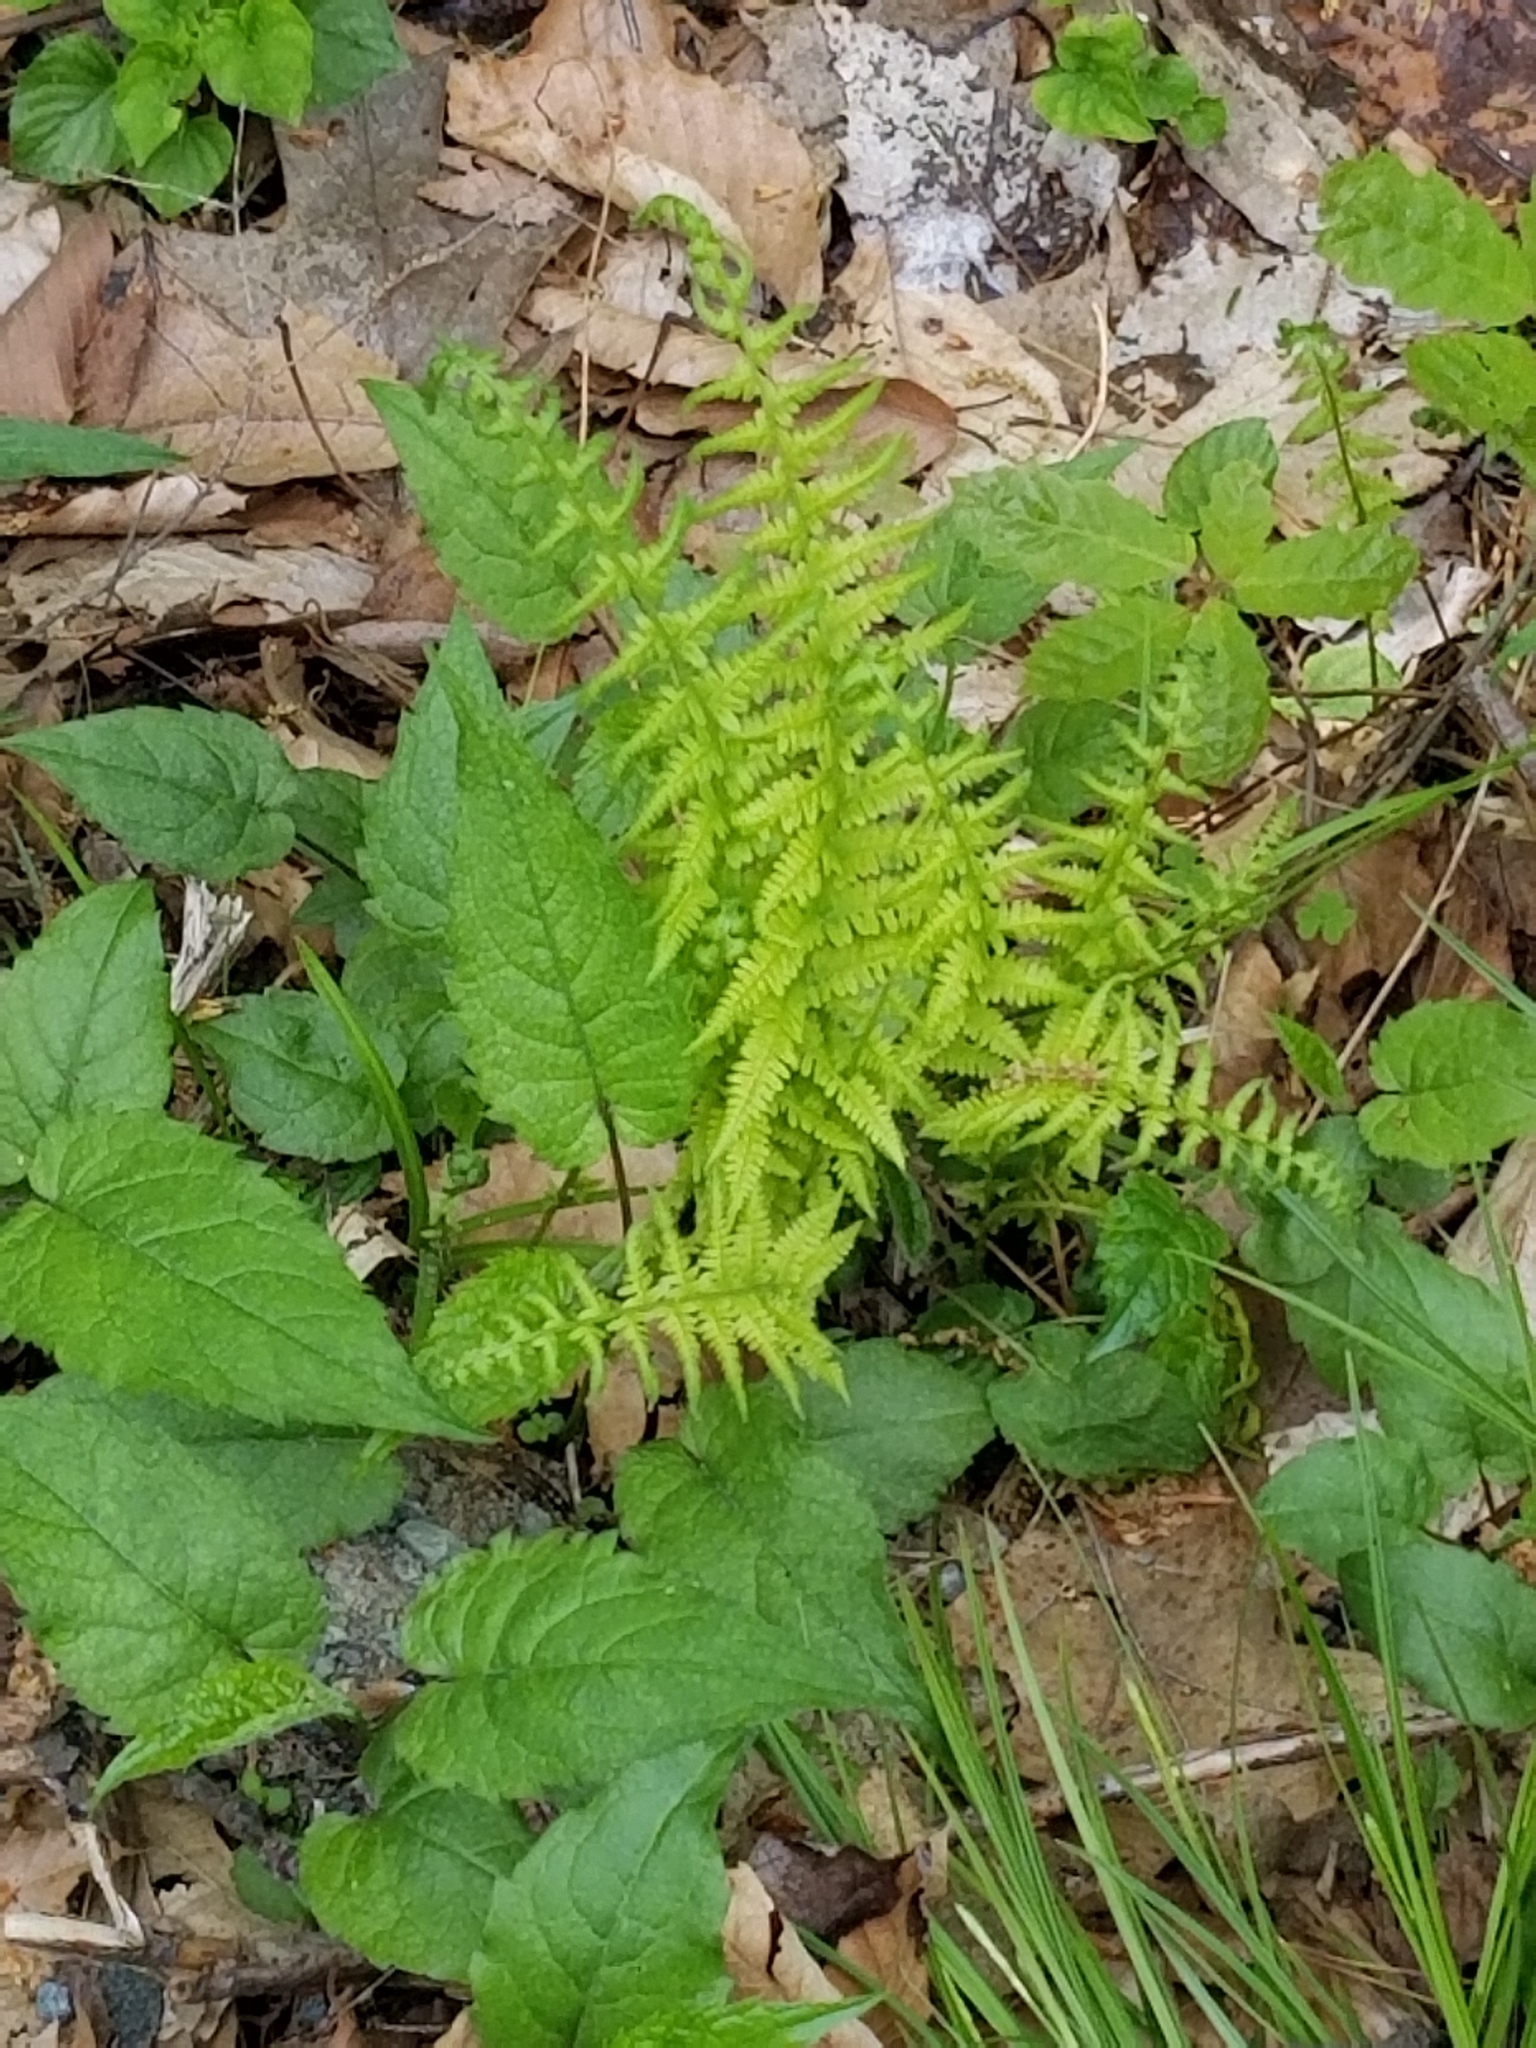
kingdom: Plantae
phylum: Tracheophyta
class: Polypodiopsida
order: Polypodiales
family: Thelypteridaceae
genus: Thelypteris
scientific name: Thelypteris palustris
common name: Marsh fern
